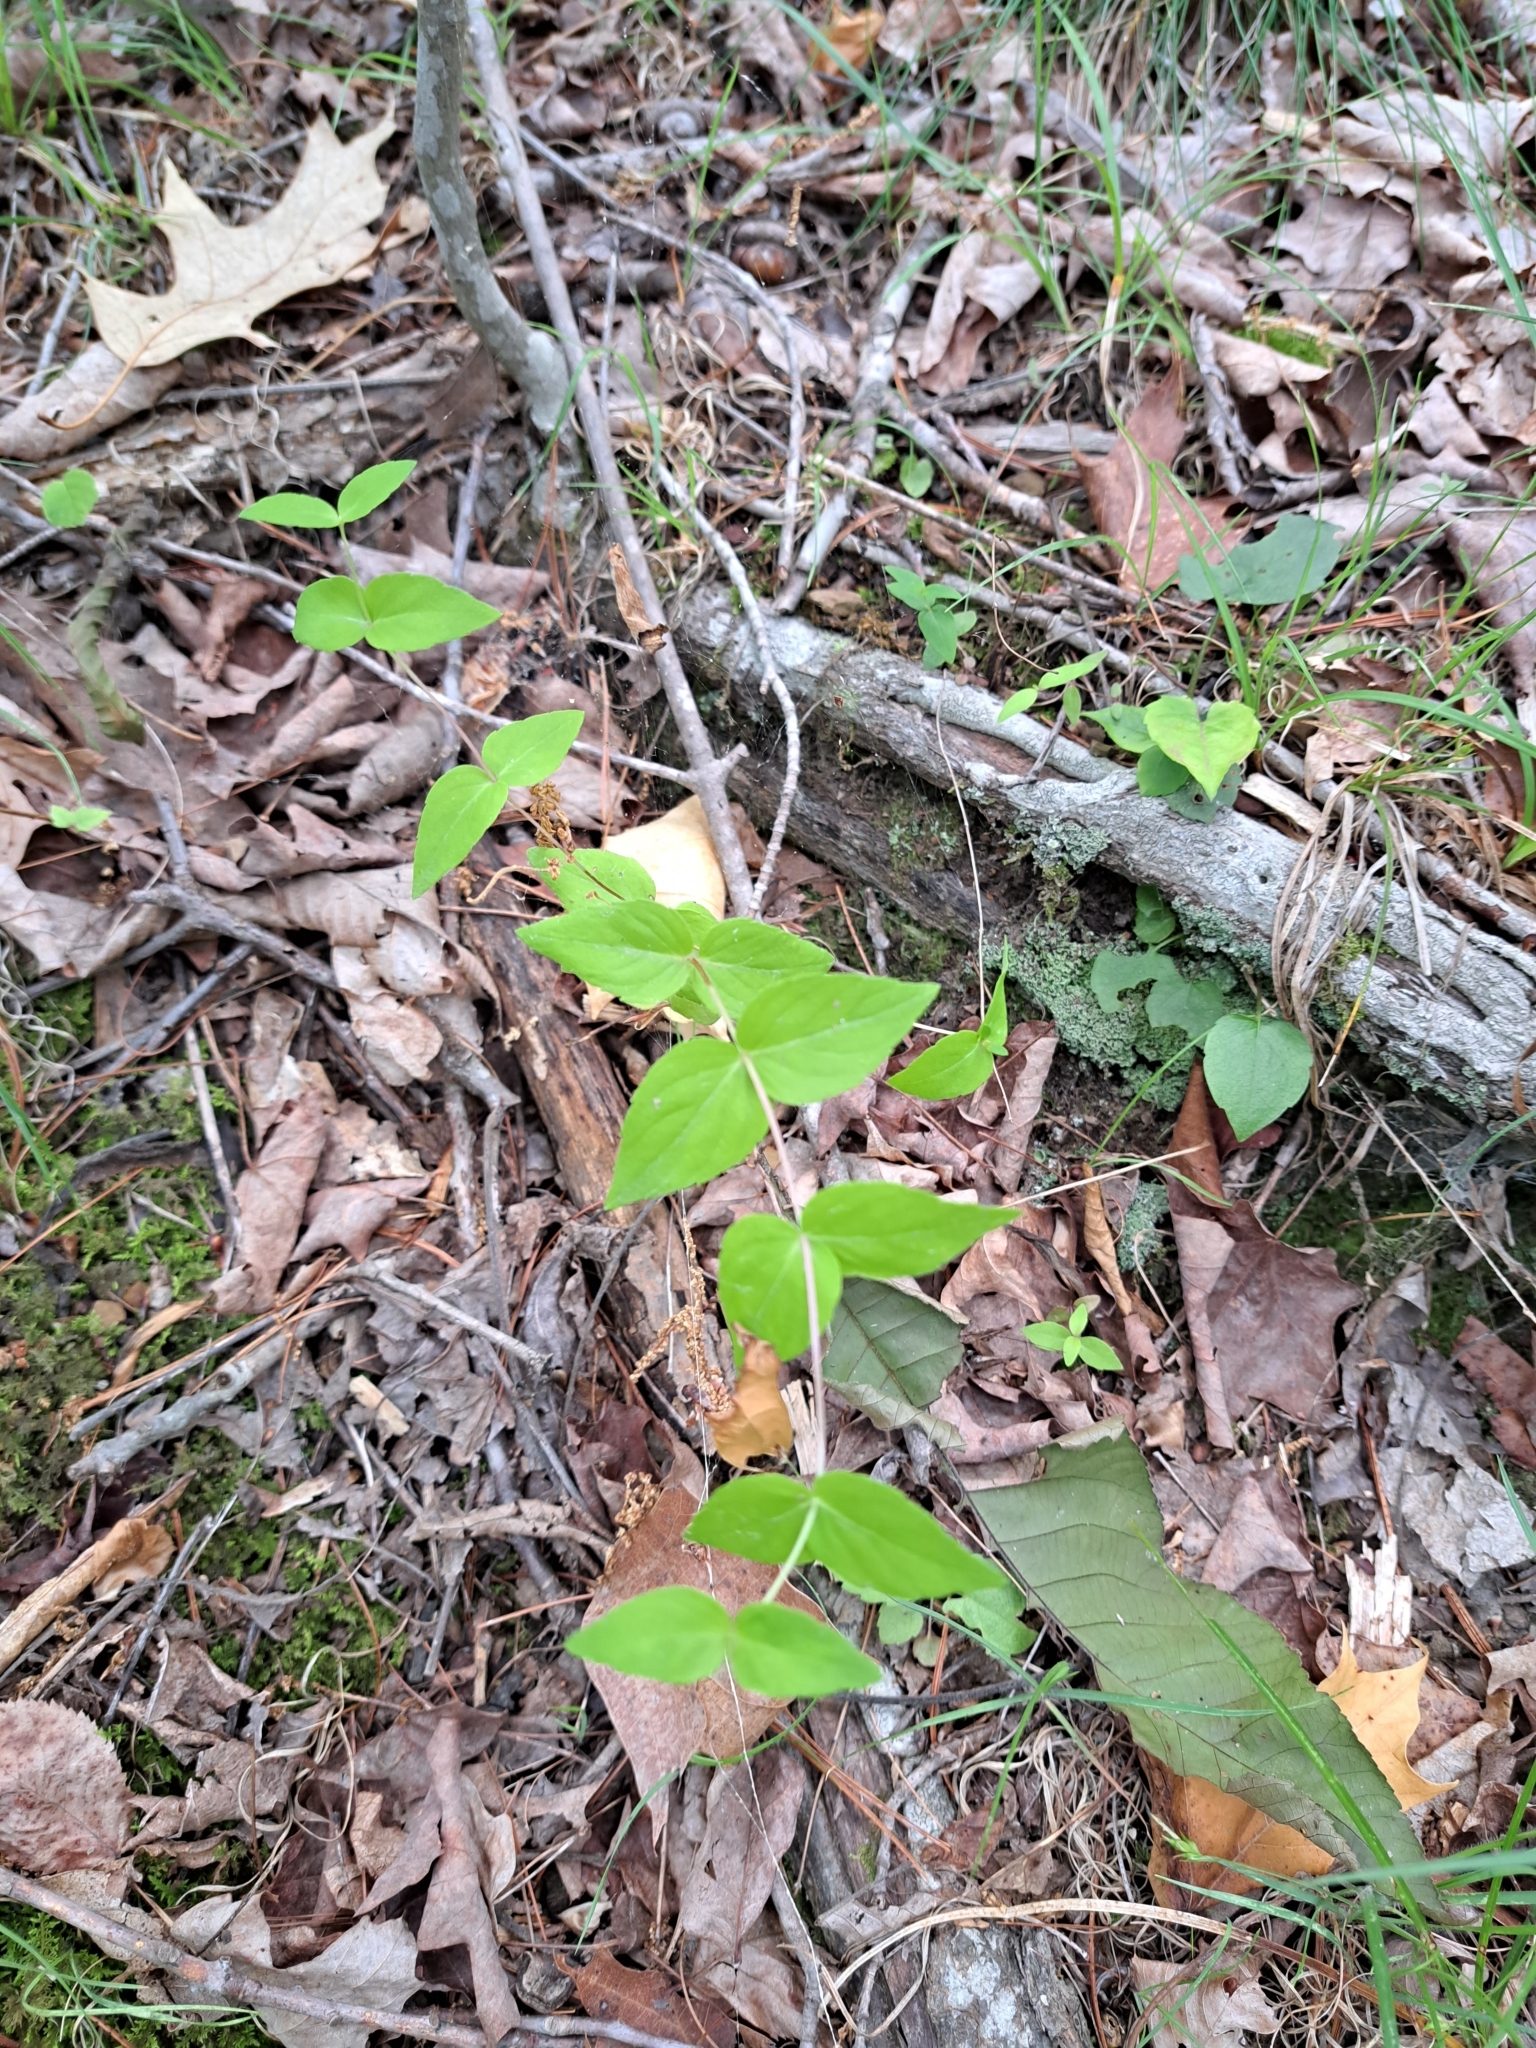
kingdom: Plantae
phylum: Tracheophyta
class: Magnoliopsida
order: Lamiales
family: Lamiaceae
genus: Cunila
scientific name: Cunila origanoides
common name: American dittany
